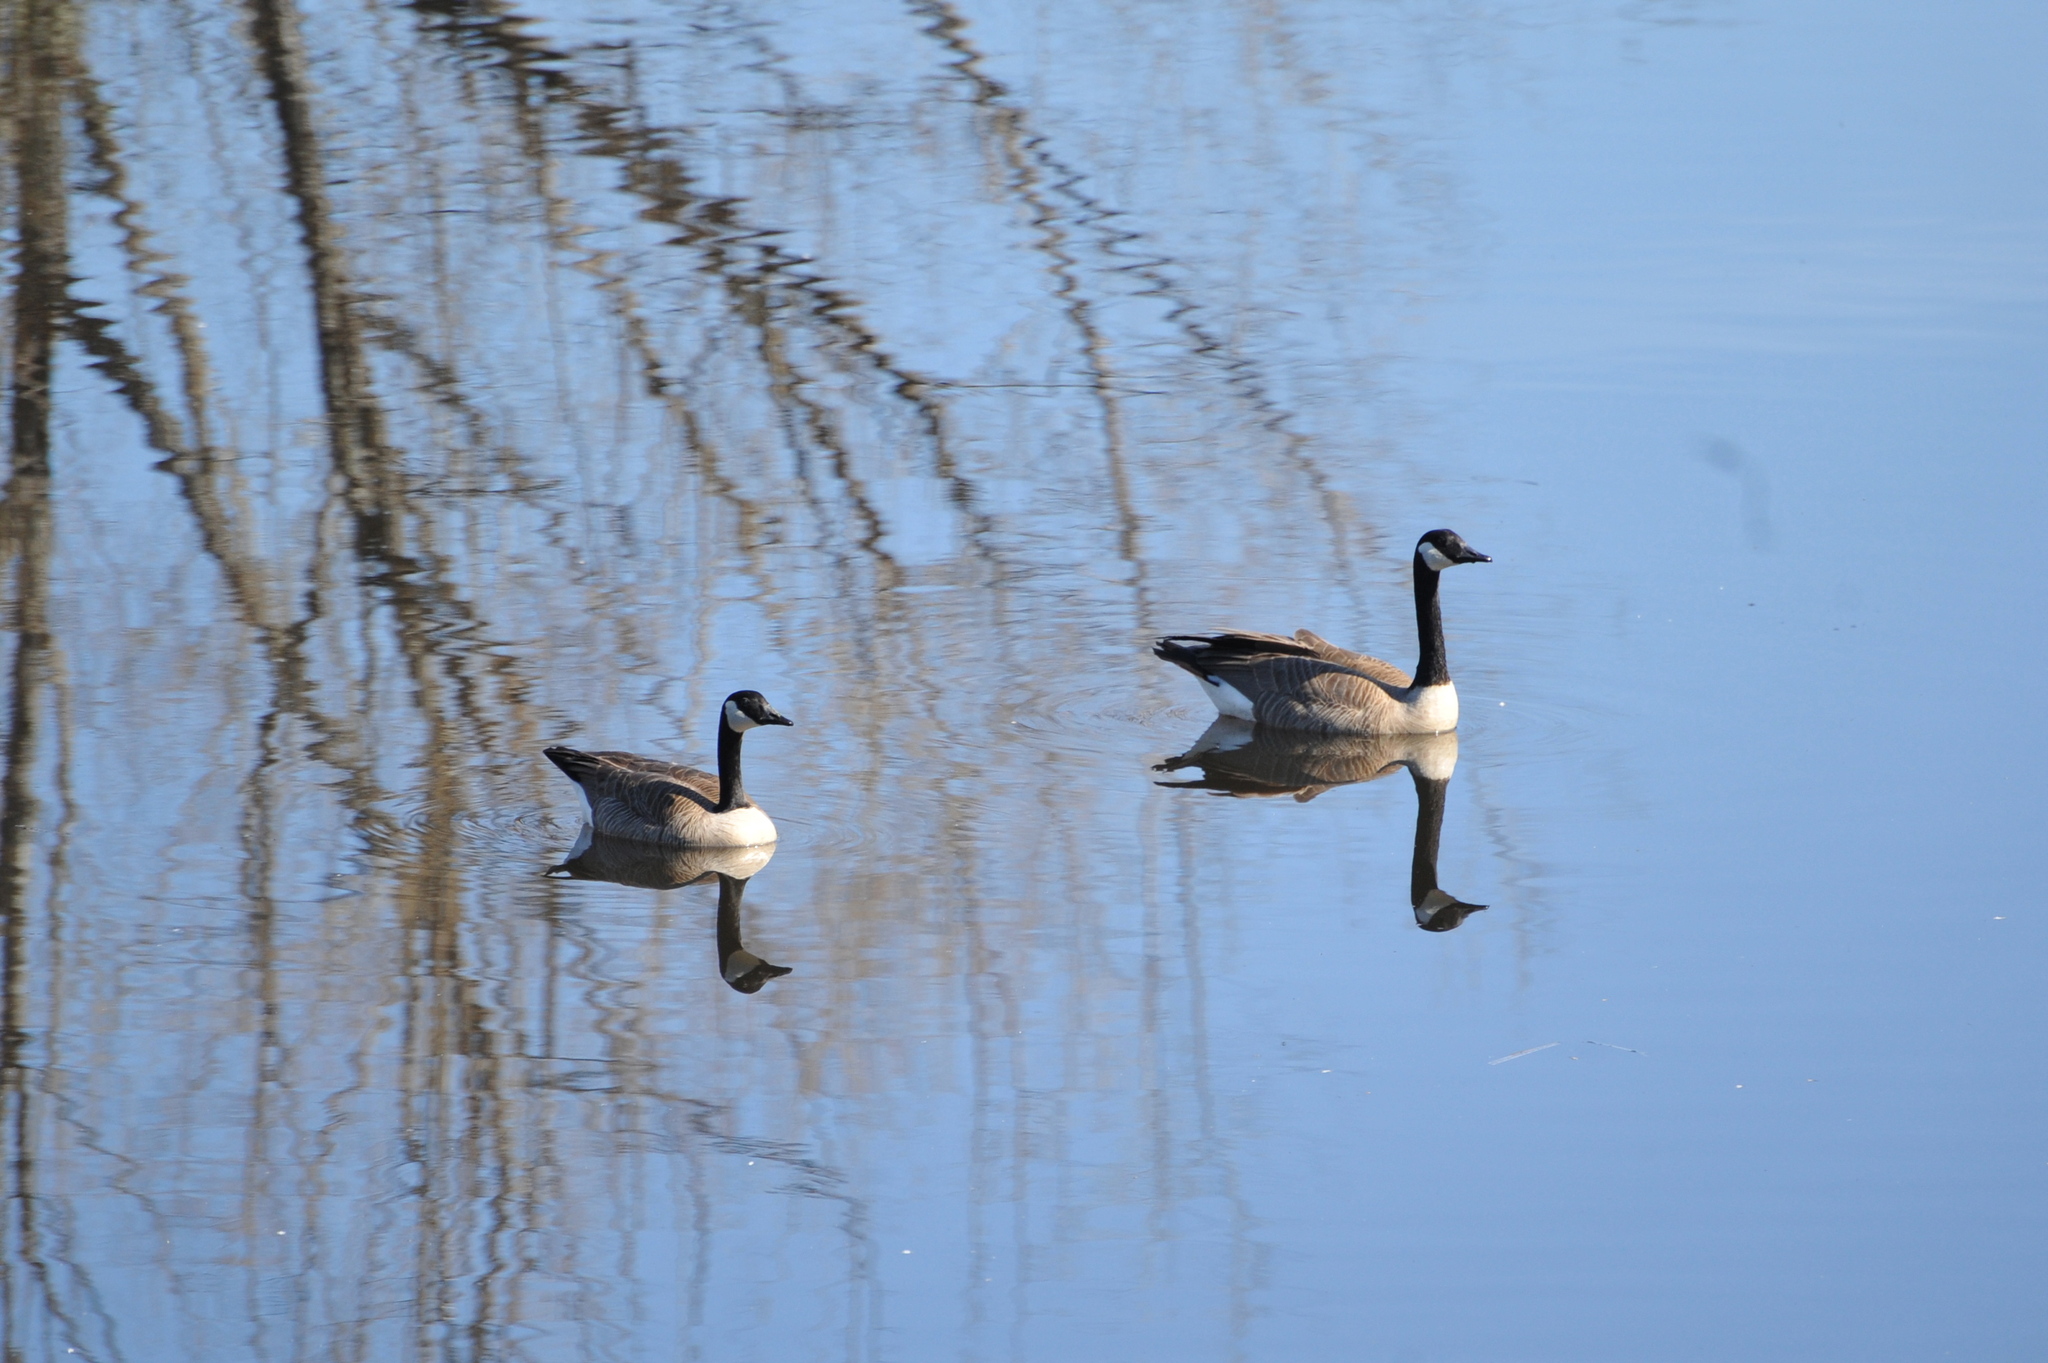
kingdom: Animalia
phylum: Chordata
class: Aves
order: Anseriformes
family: Anatidae
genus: Branta
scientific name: Branta canadensis
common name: Canada goose
